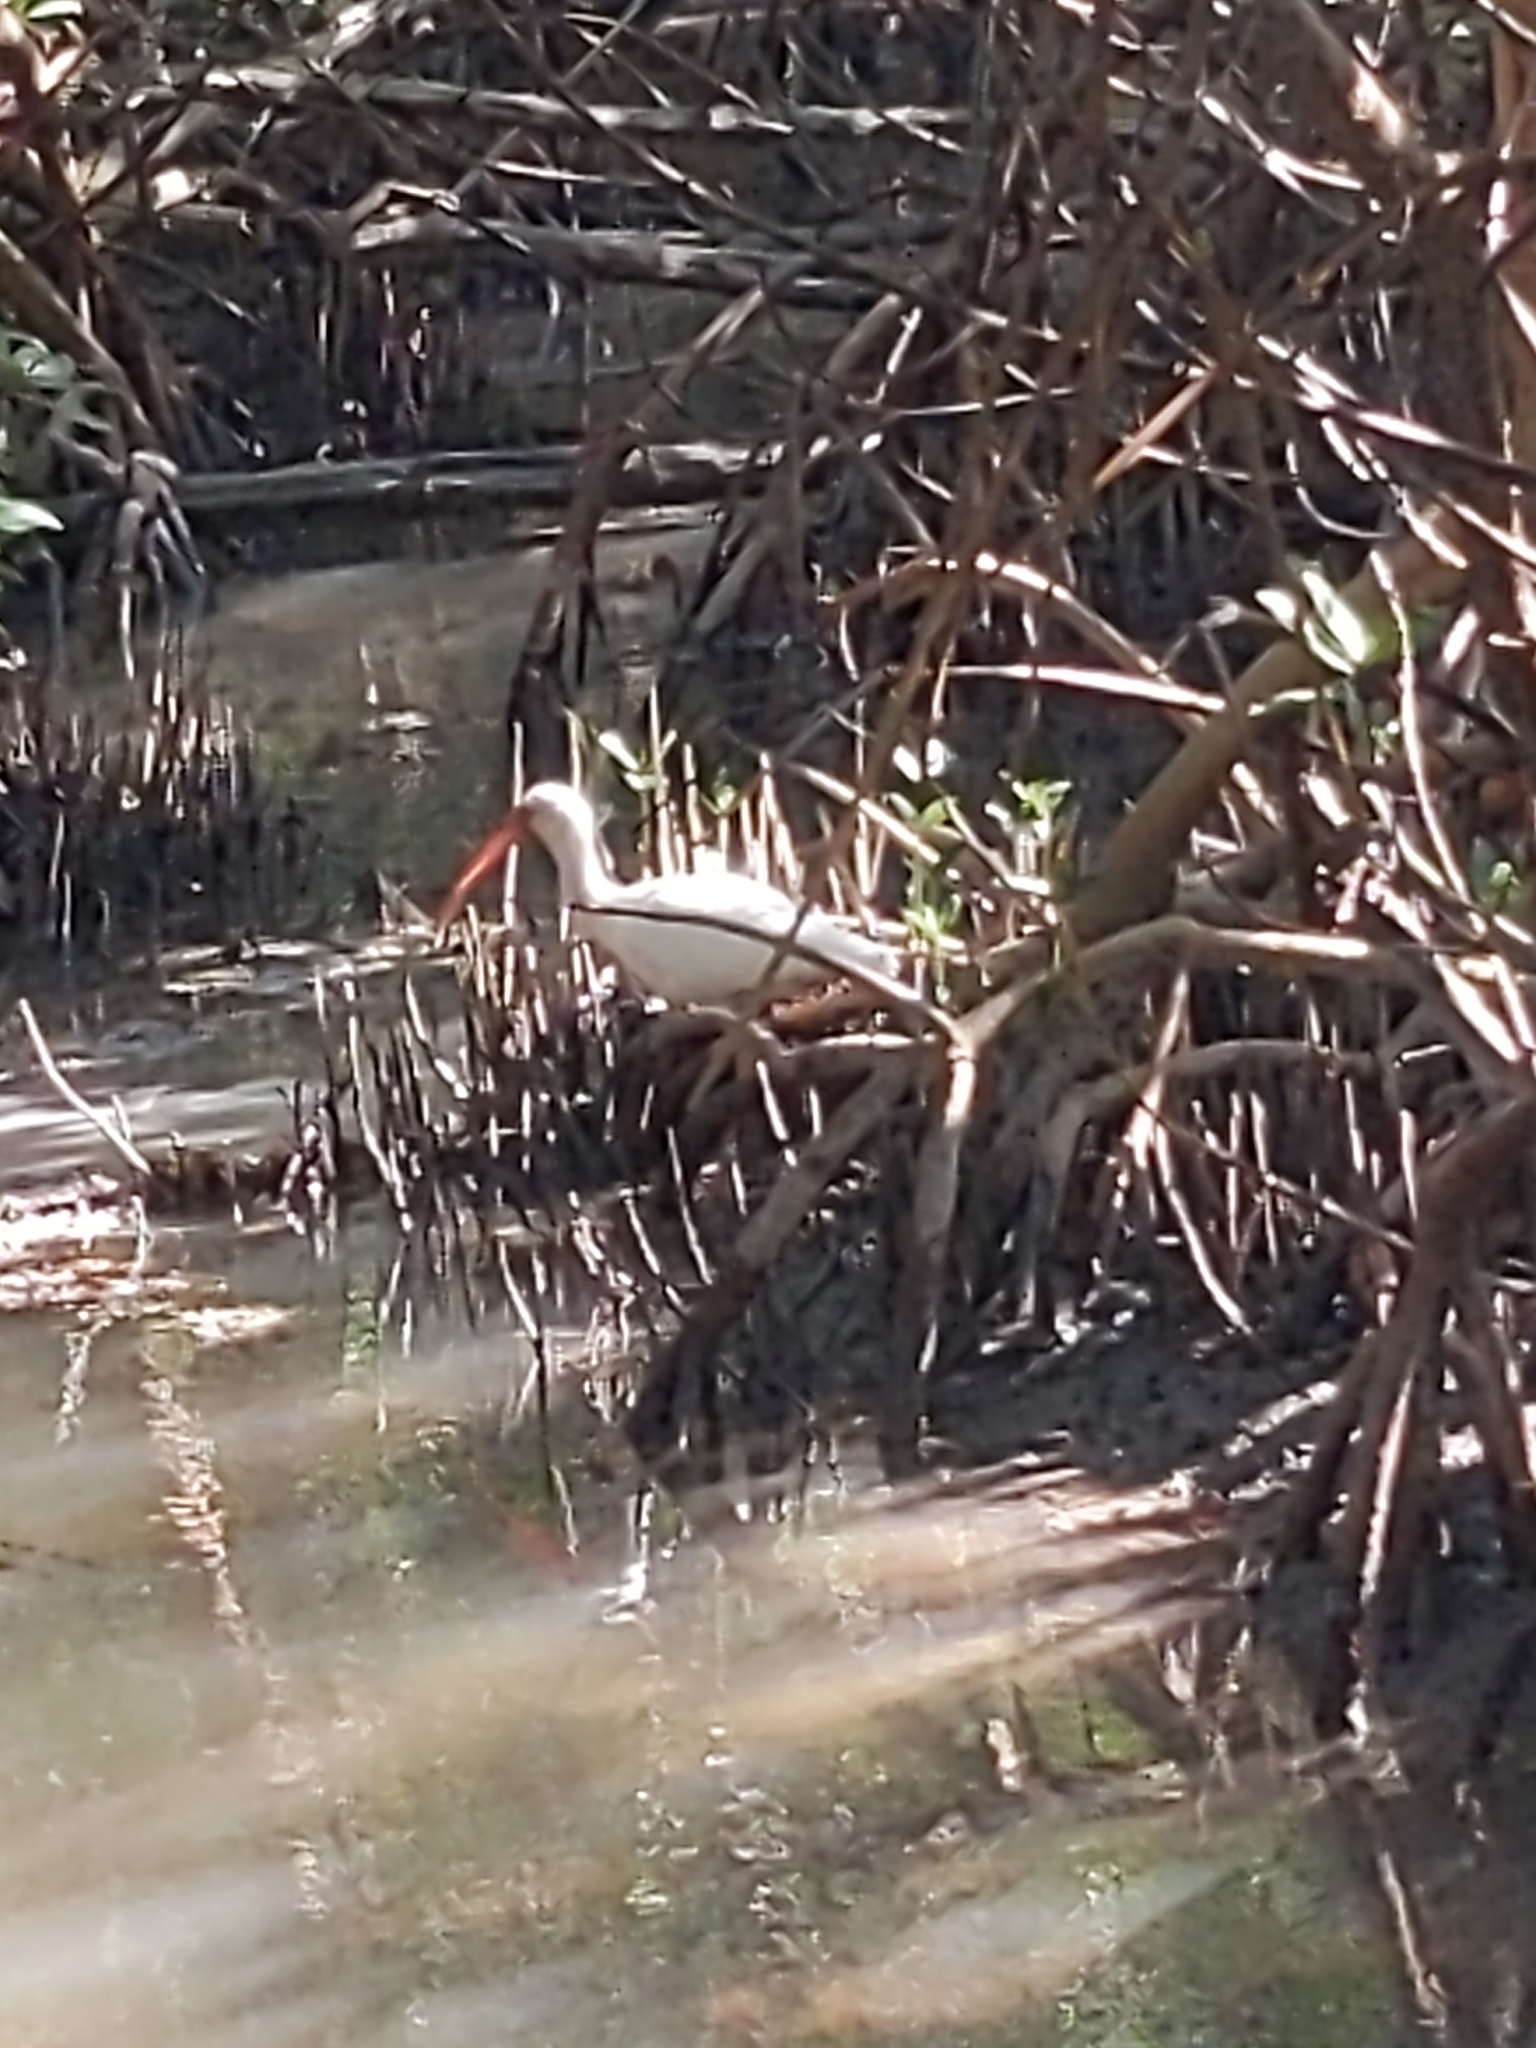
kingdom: Animalia
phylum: Chordata
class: Aves
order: Pelecaniformes
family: Threskiornithidae
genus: Eudocimus
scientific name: Eudocimus albus
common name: White ibis
